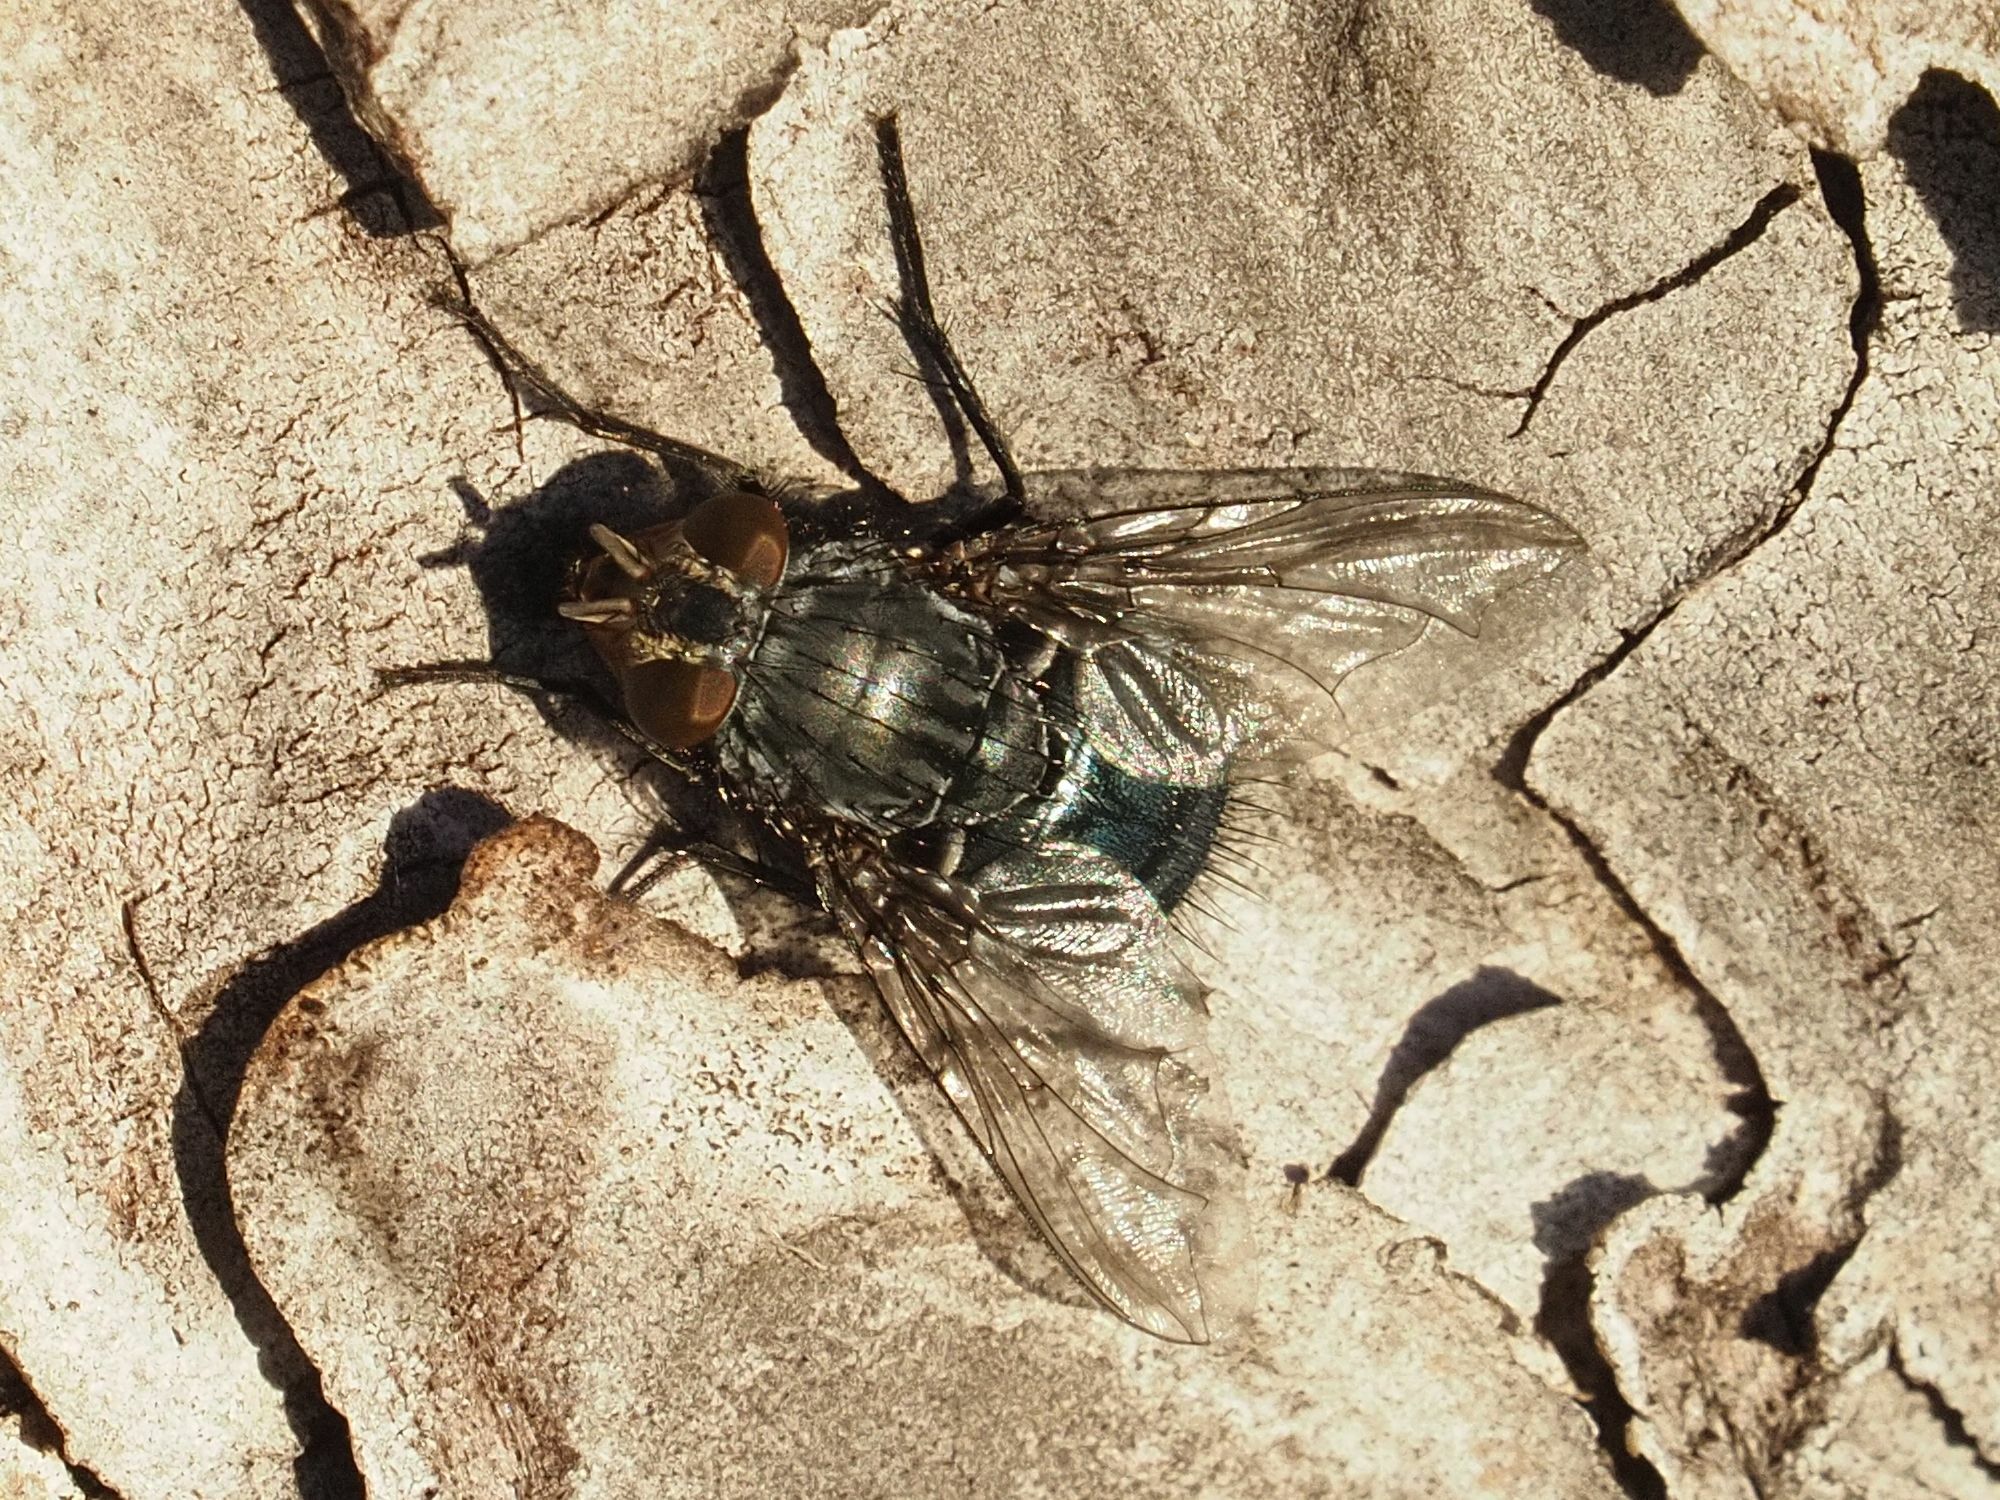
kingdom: Animalia
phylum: Arthropoda
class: Insecta
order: Diptera
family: Calliphoridae
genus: Calliphora
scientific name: Calliphora vicina
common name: Common blow flie
